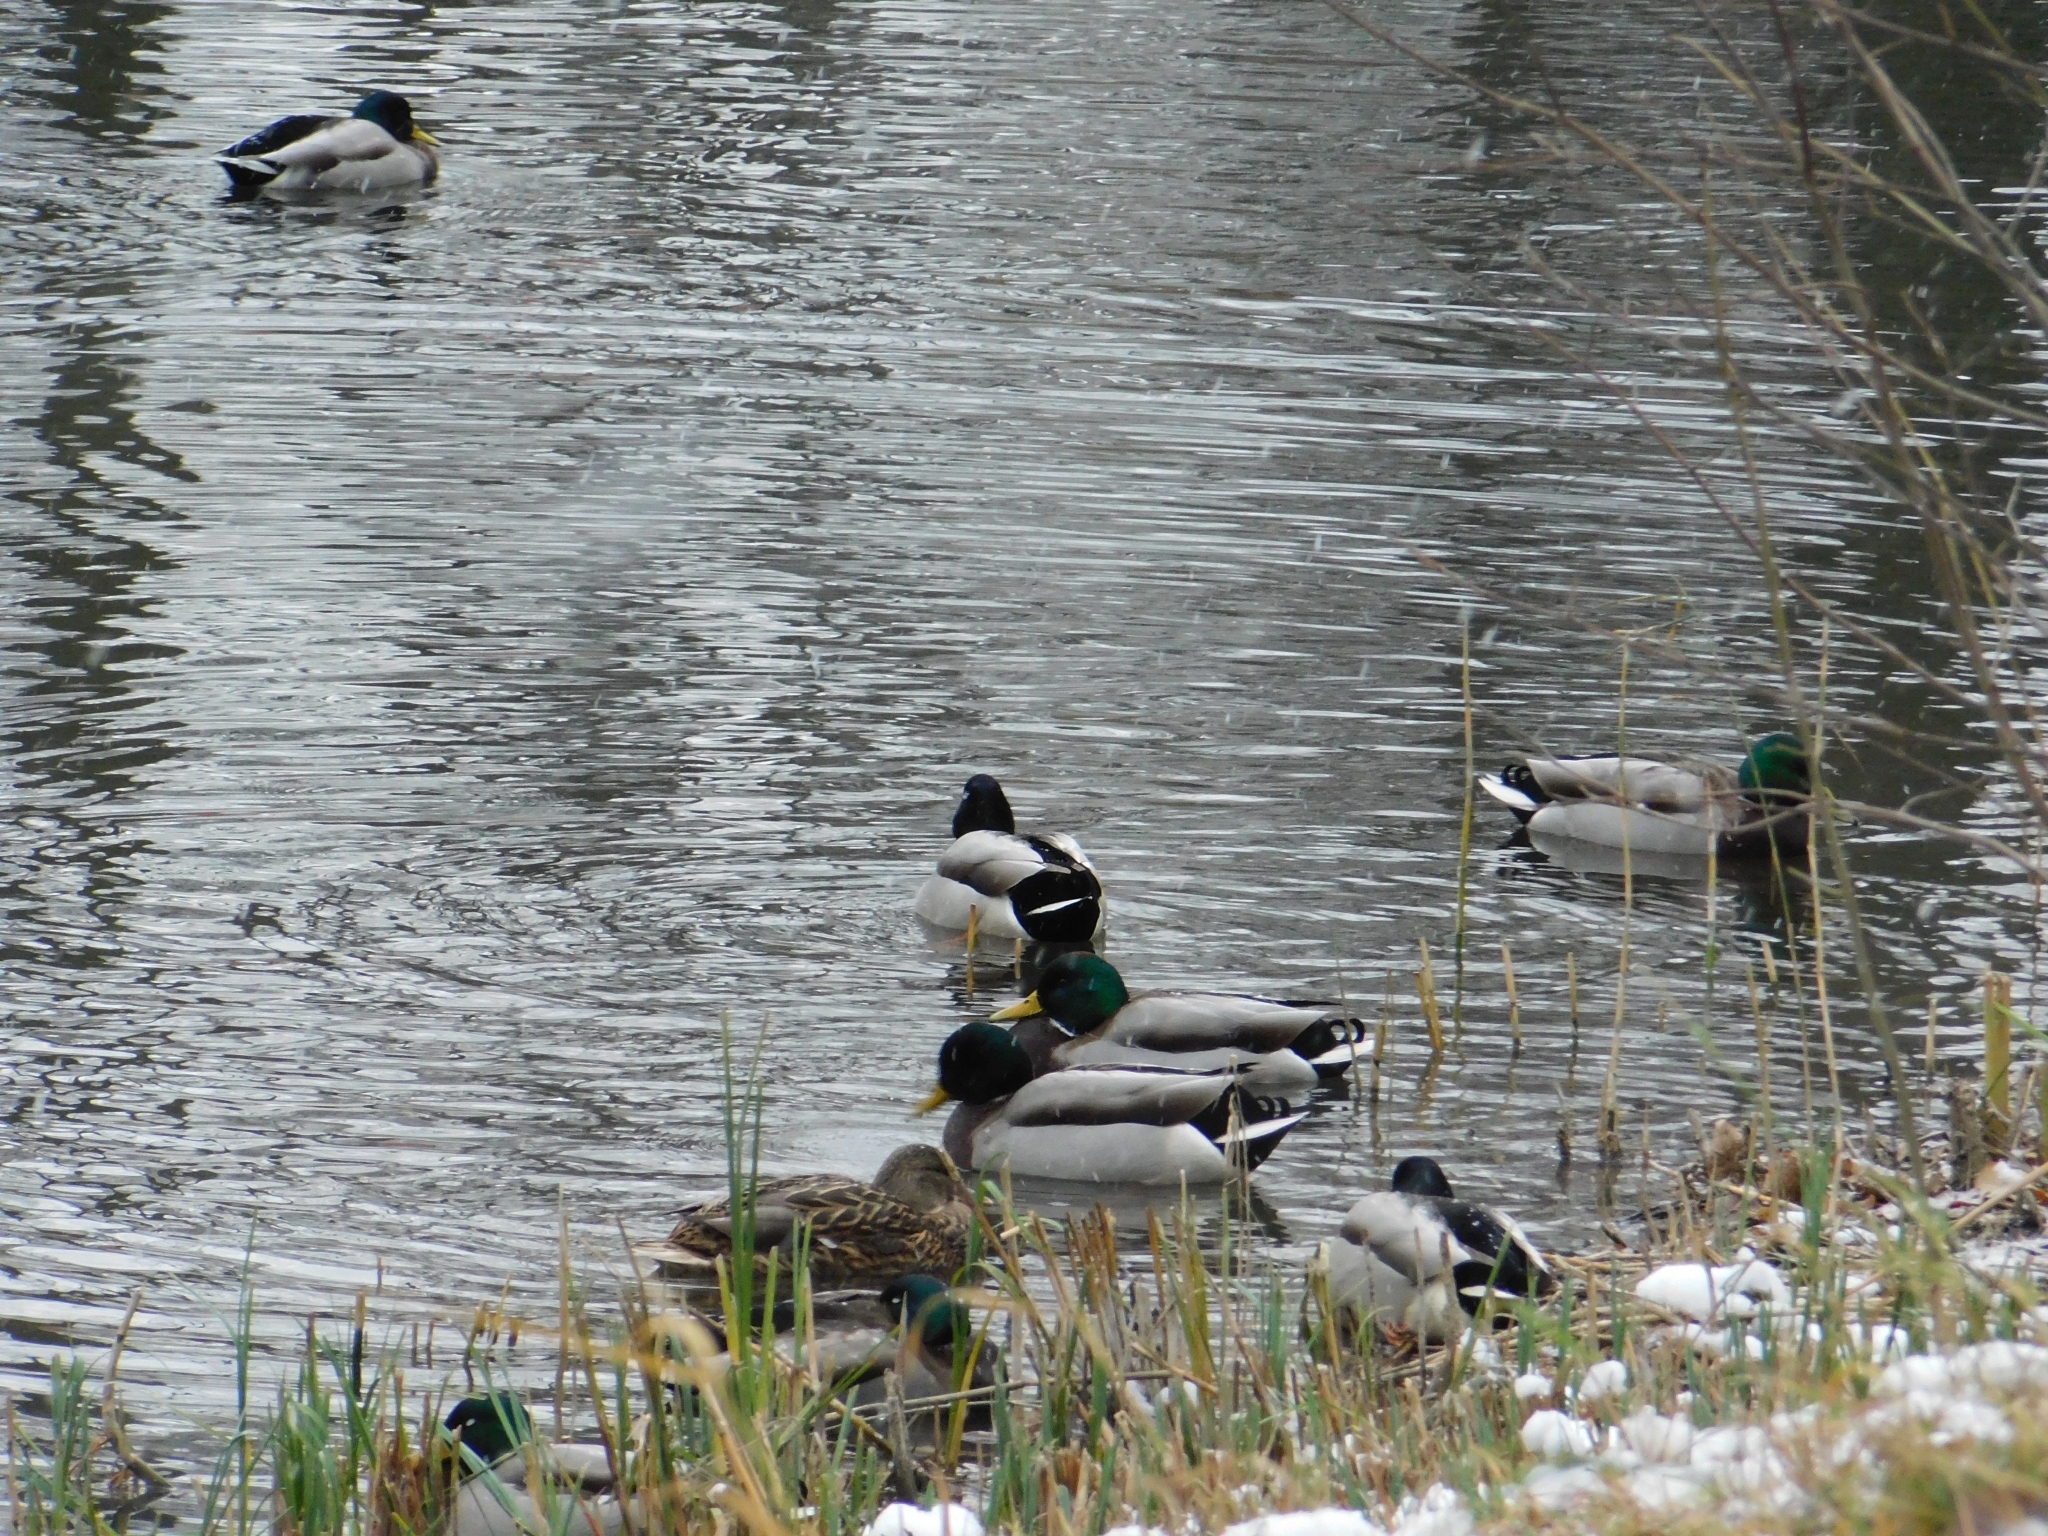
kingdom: Animalia
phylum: Chordata
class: Aves
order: Anseriformes
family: Anatidae
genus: Anas
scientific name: Anas platyrhynchos
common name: Mallard
